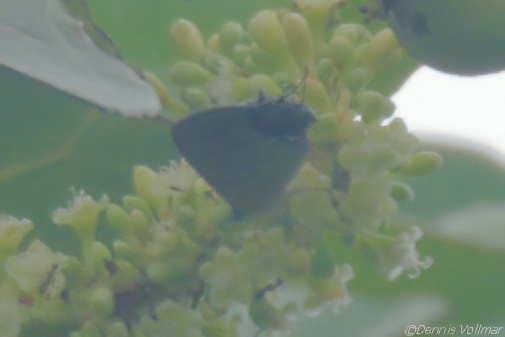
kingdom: Animalia
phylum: Arthropoda
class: Insecta
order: Lepidoptera
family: Lycaenidae
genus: Thecla
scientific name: Thecla maesites
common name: Verde azul hairstreak
